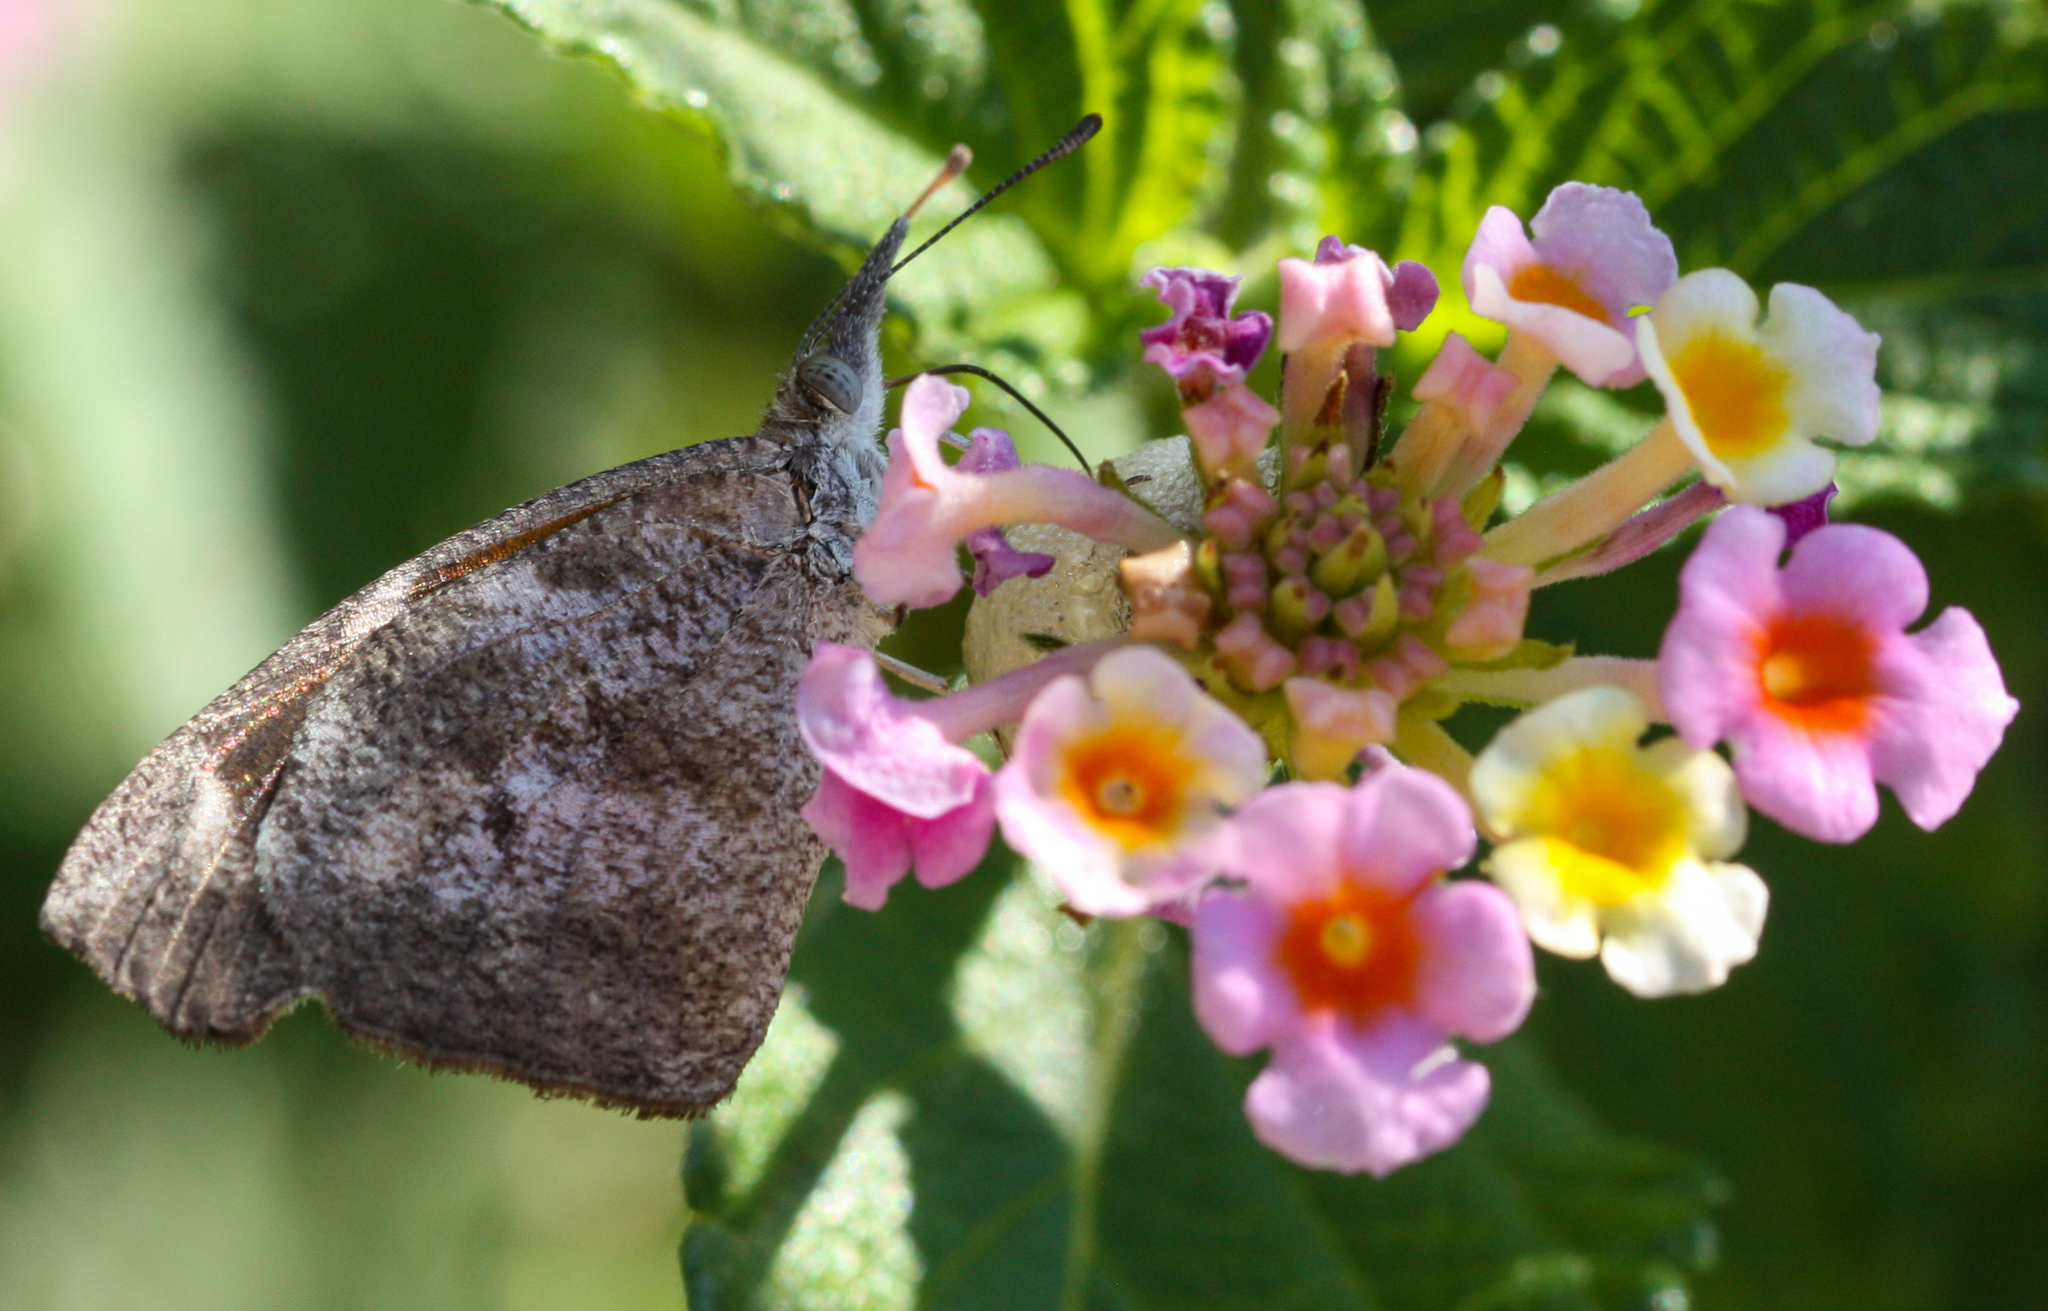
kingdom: Animalia
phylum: Arthropoda
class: Insecta
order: Lepidoptera
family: Nymphalidae
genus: Libytheana
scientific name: Libytheana carinenta
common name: American snout
